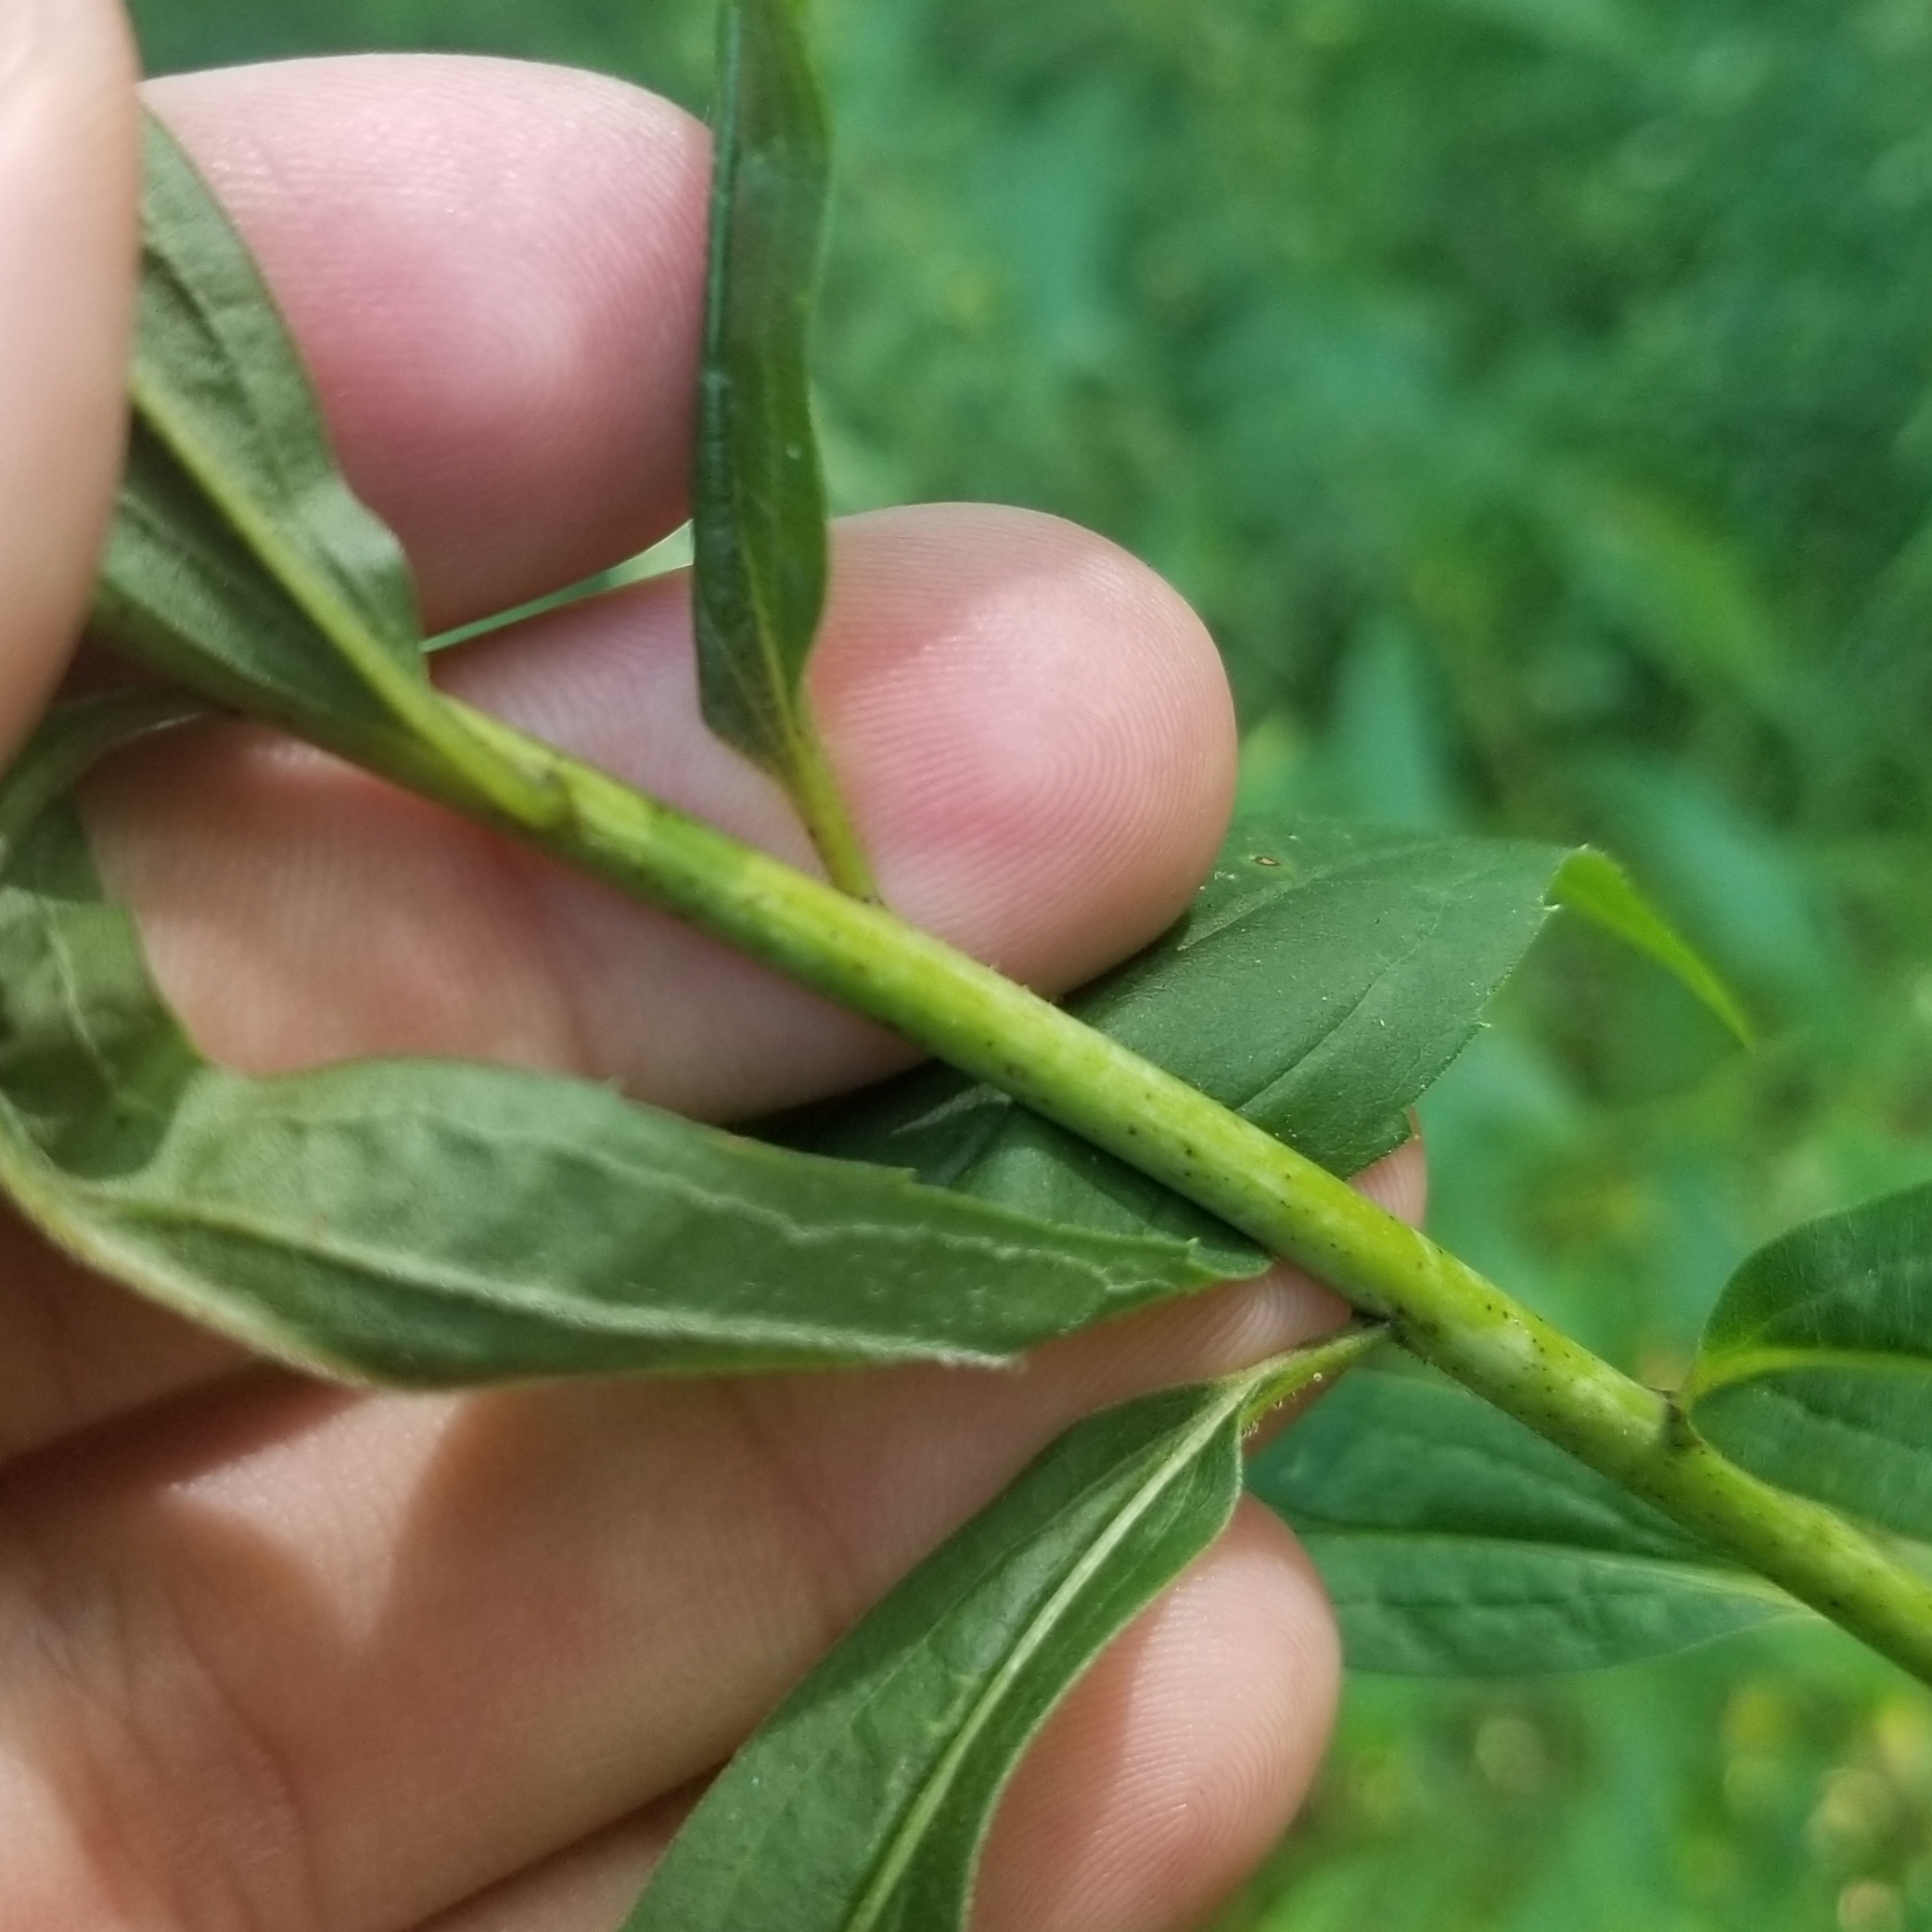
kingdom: Plantae
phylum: Tracheophyta
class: Magnoliopsida
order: Asterales
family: Asteraceae
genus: Solidago
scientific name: Solidago gigantea
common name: Giant goldenrod
